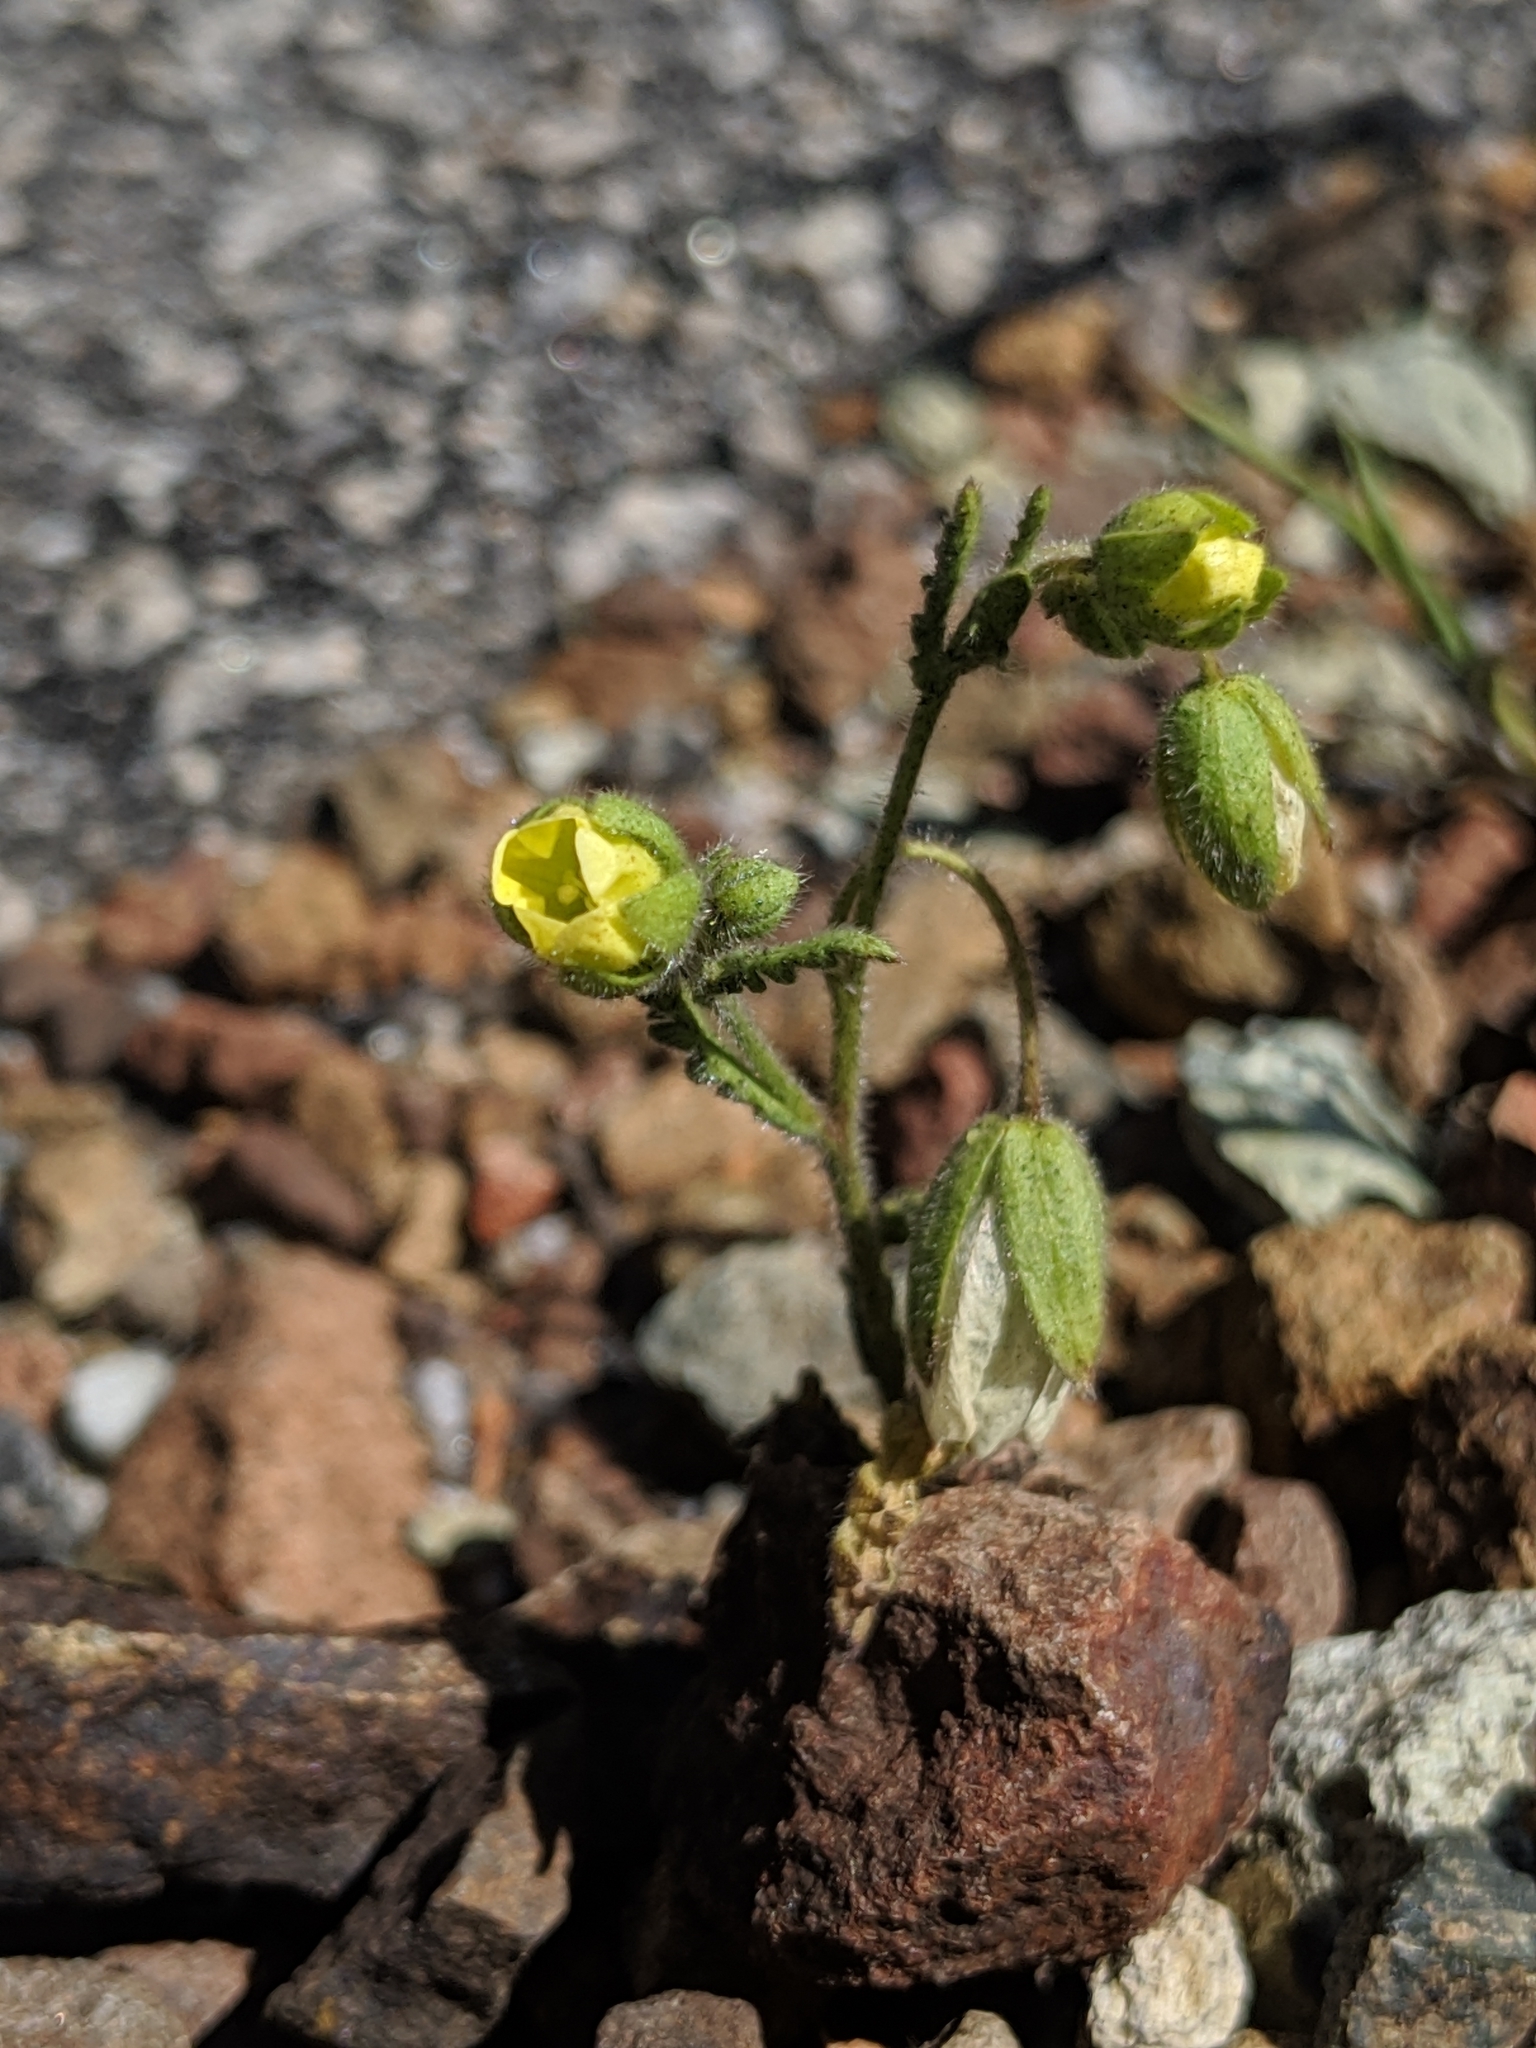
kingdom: Plantae
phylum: Tracheophyta
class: Magnoliopsida
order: Boraginales
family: Hydrophyllaceae
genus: Emmenanthe
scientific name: Emmenanthe penduliflora
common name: Whispering-bells
